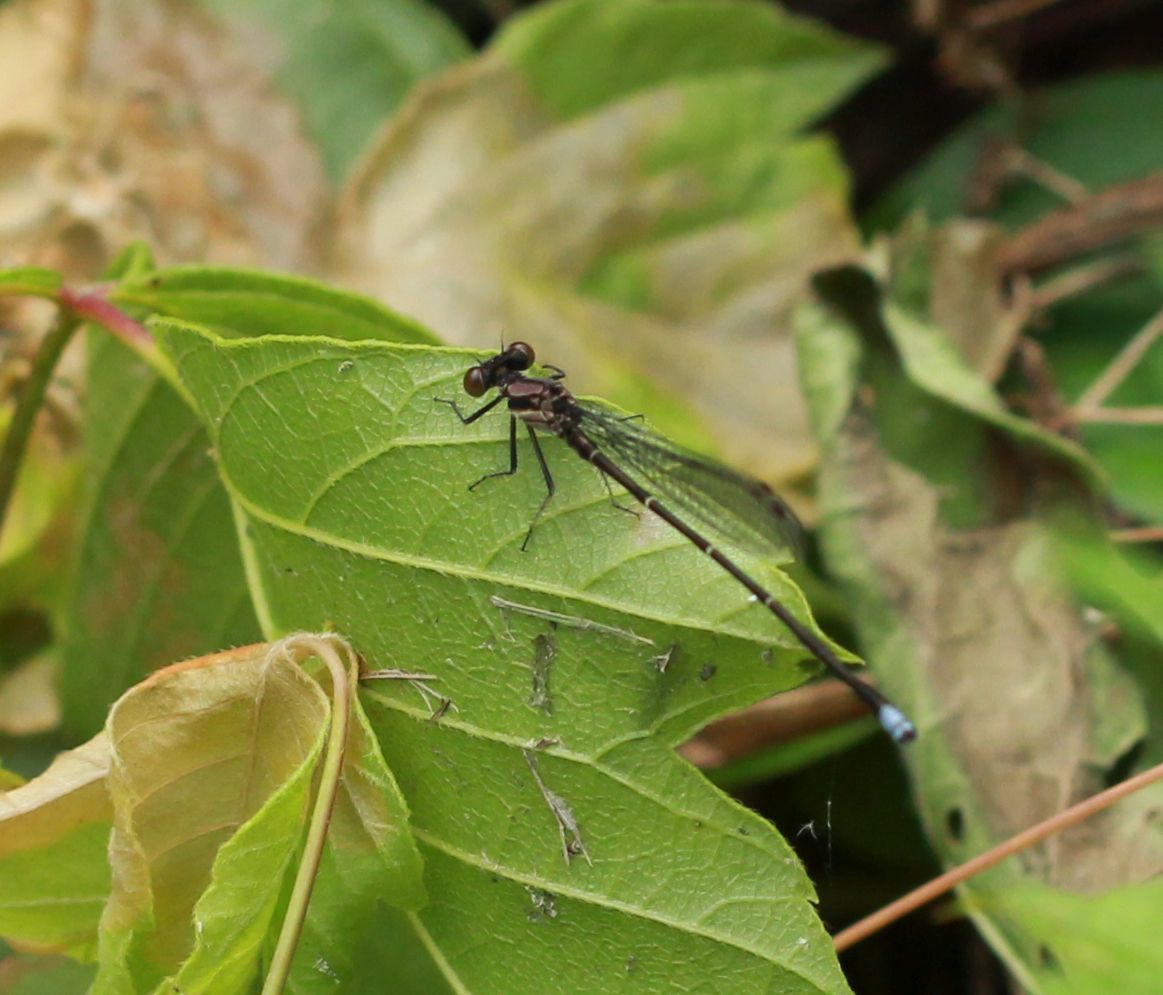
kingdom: Animalia
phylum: Arthropoda
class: Insecta
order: Odonata
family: Coenagrionidae
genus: Argia
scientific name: Argia tibialis
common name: Blue-tipped dancer
